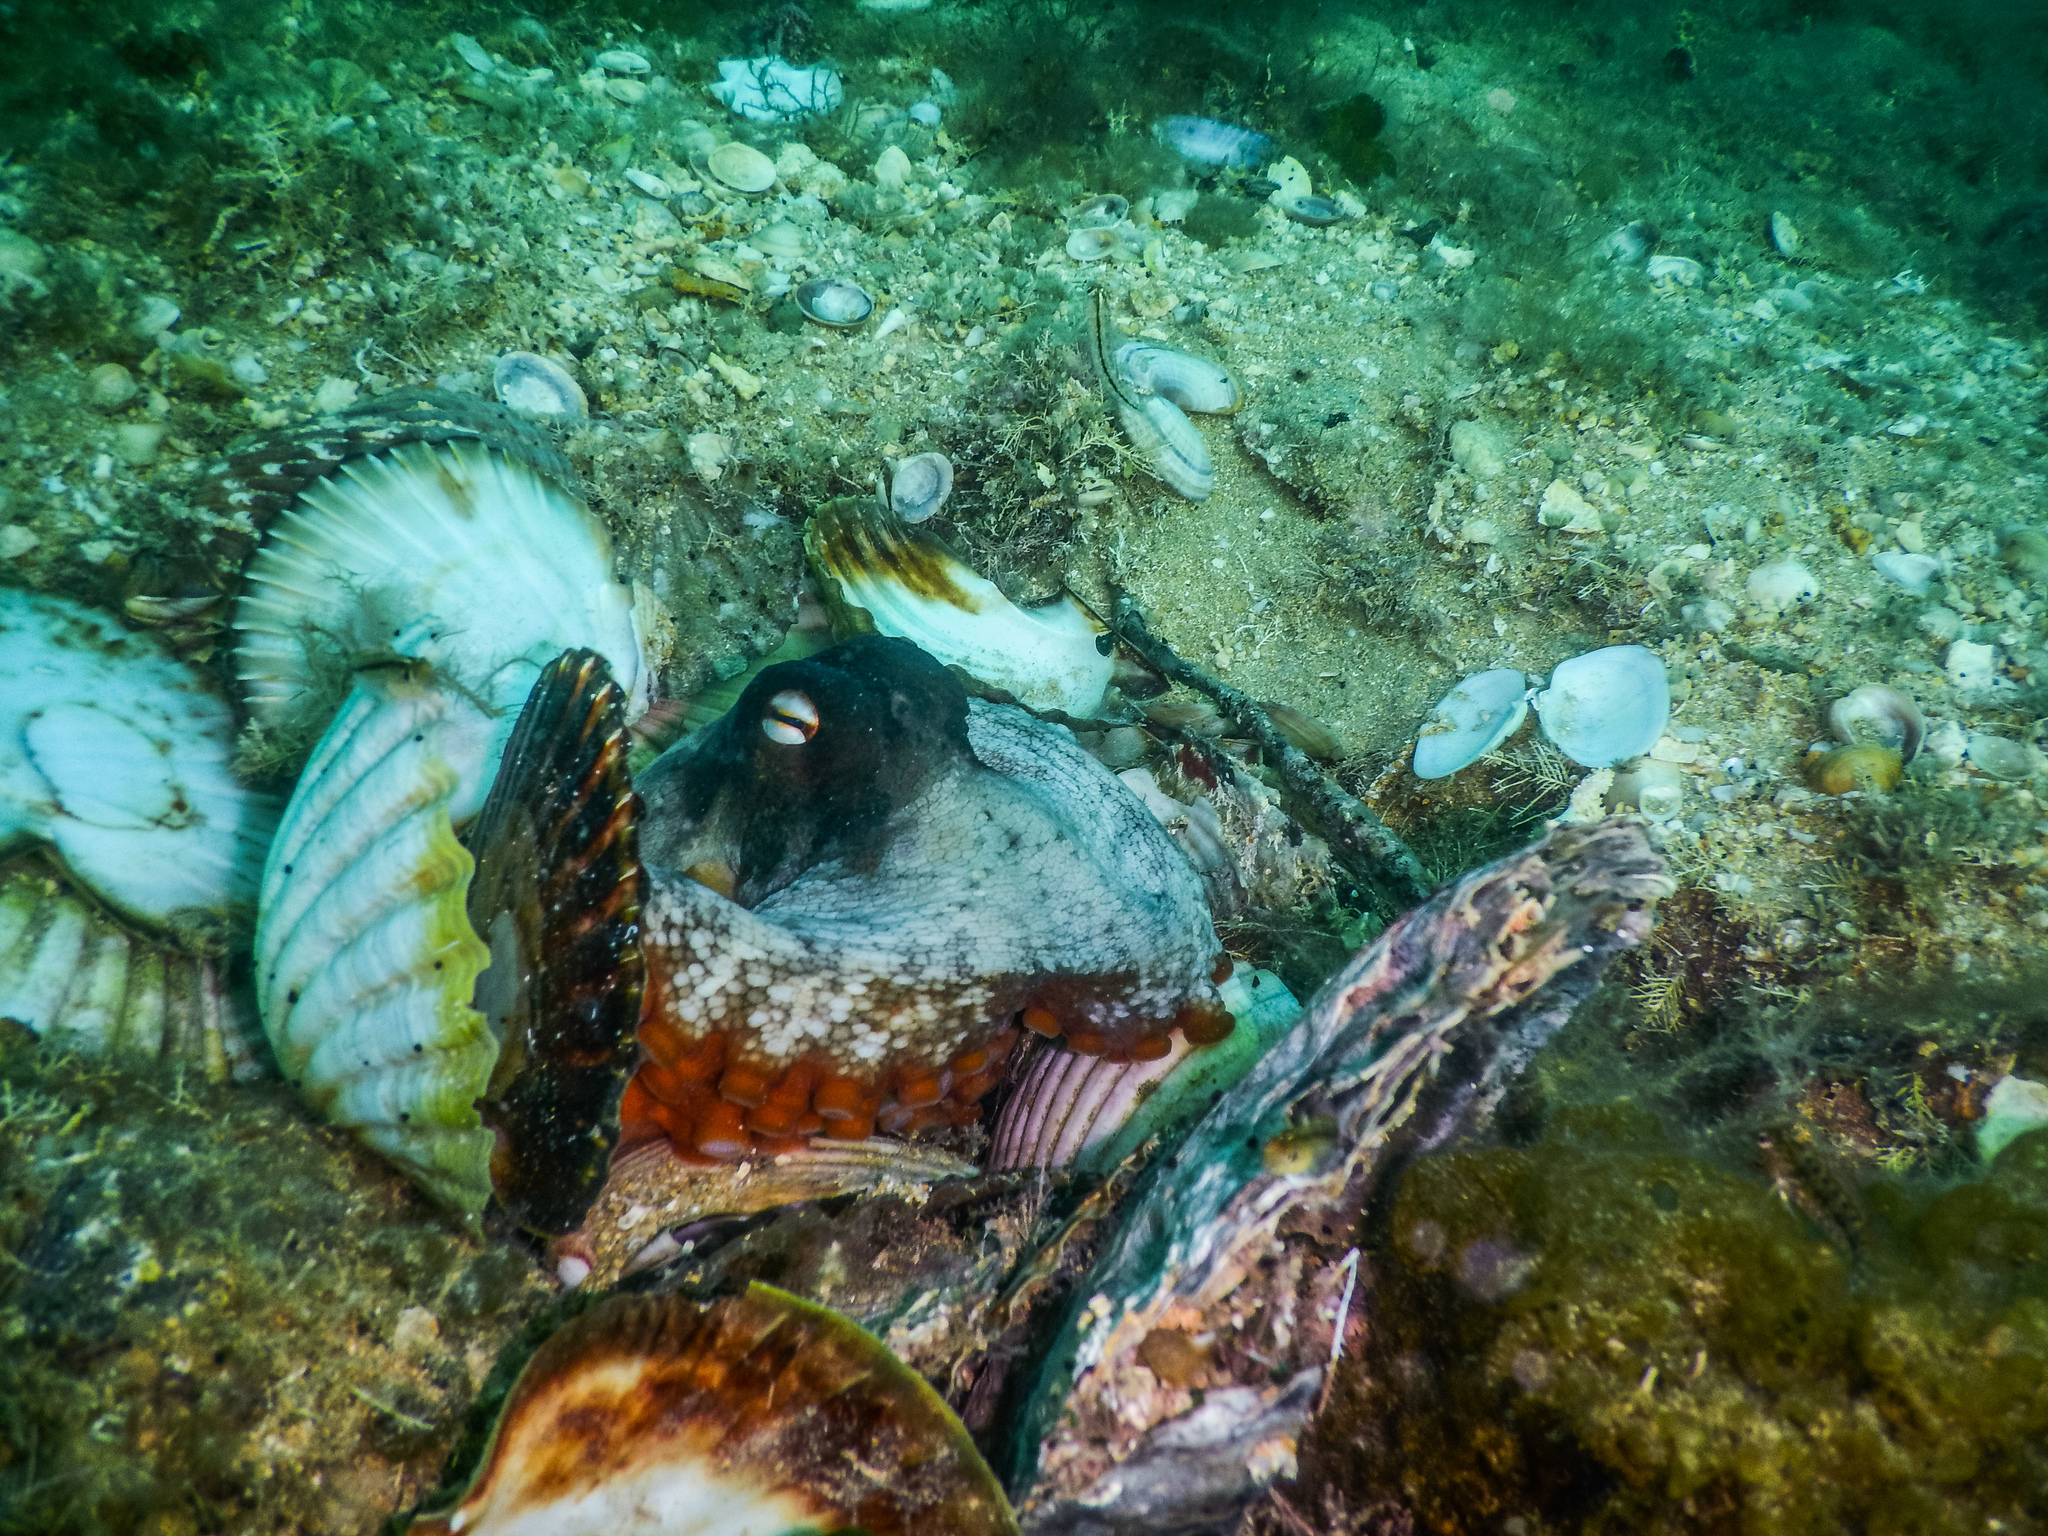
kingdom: Animalia
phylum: Mollusca
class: Cephalopoda
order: Octopoda
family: Octopodidae
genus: Octopus
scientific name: Octopus tetricus
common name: Sydney octopus
